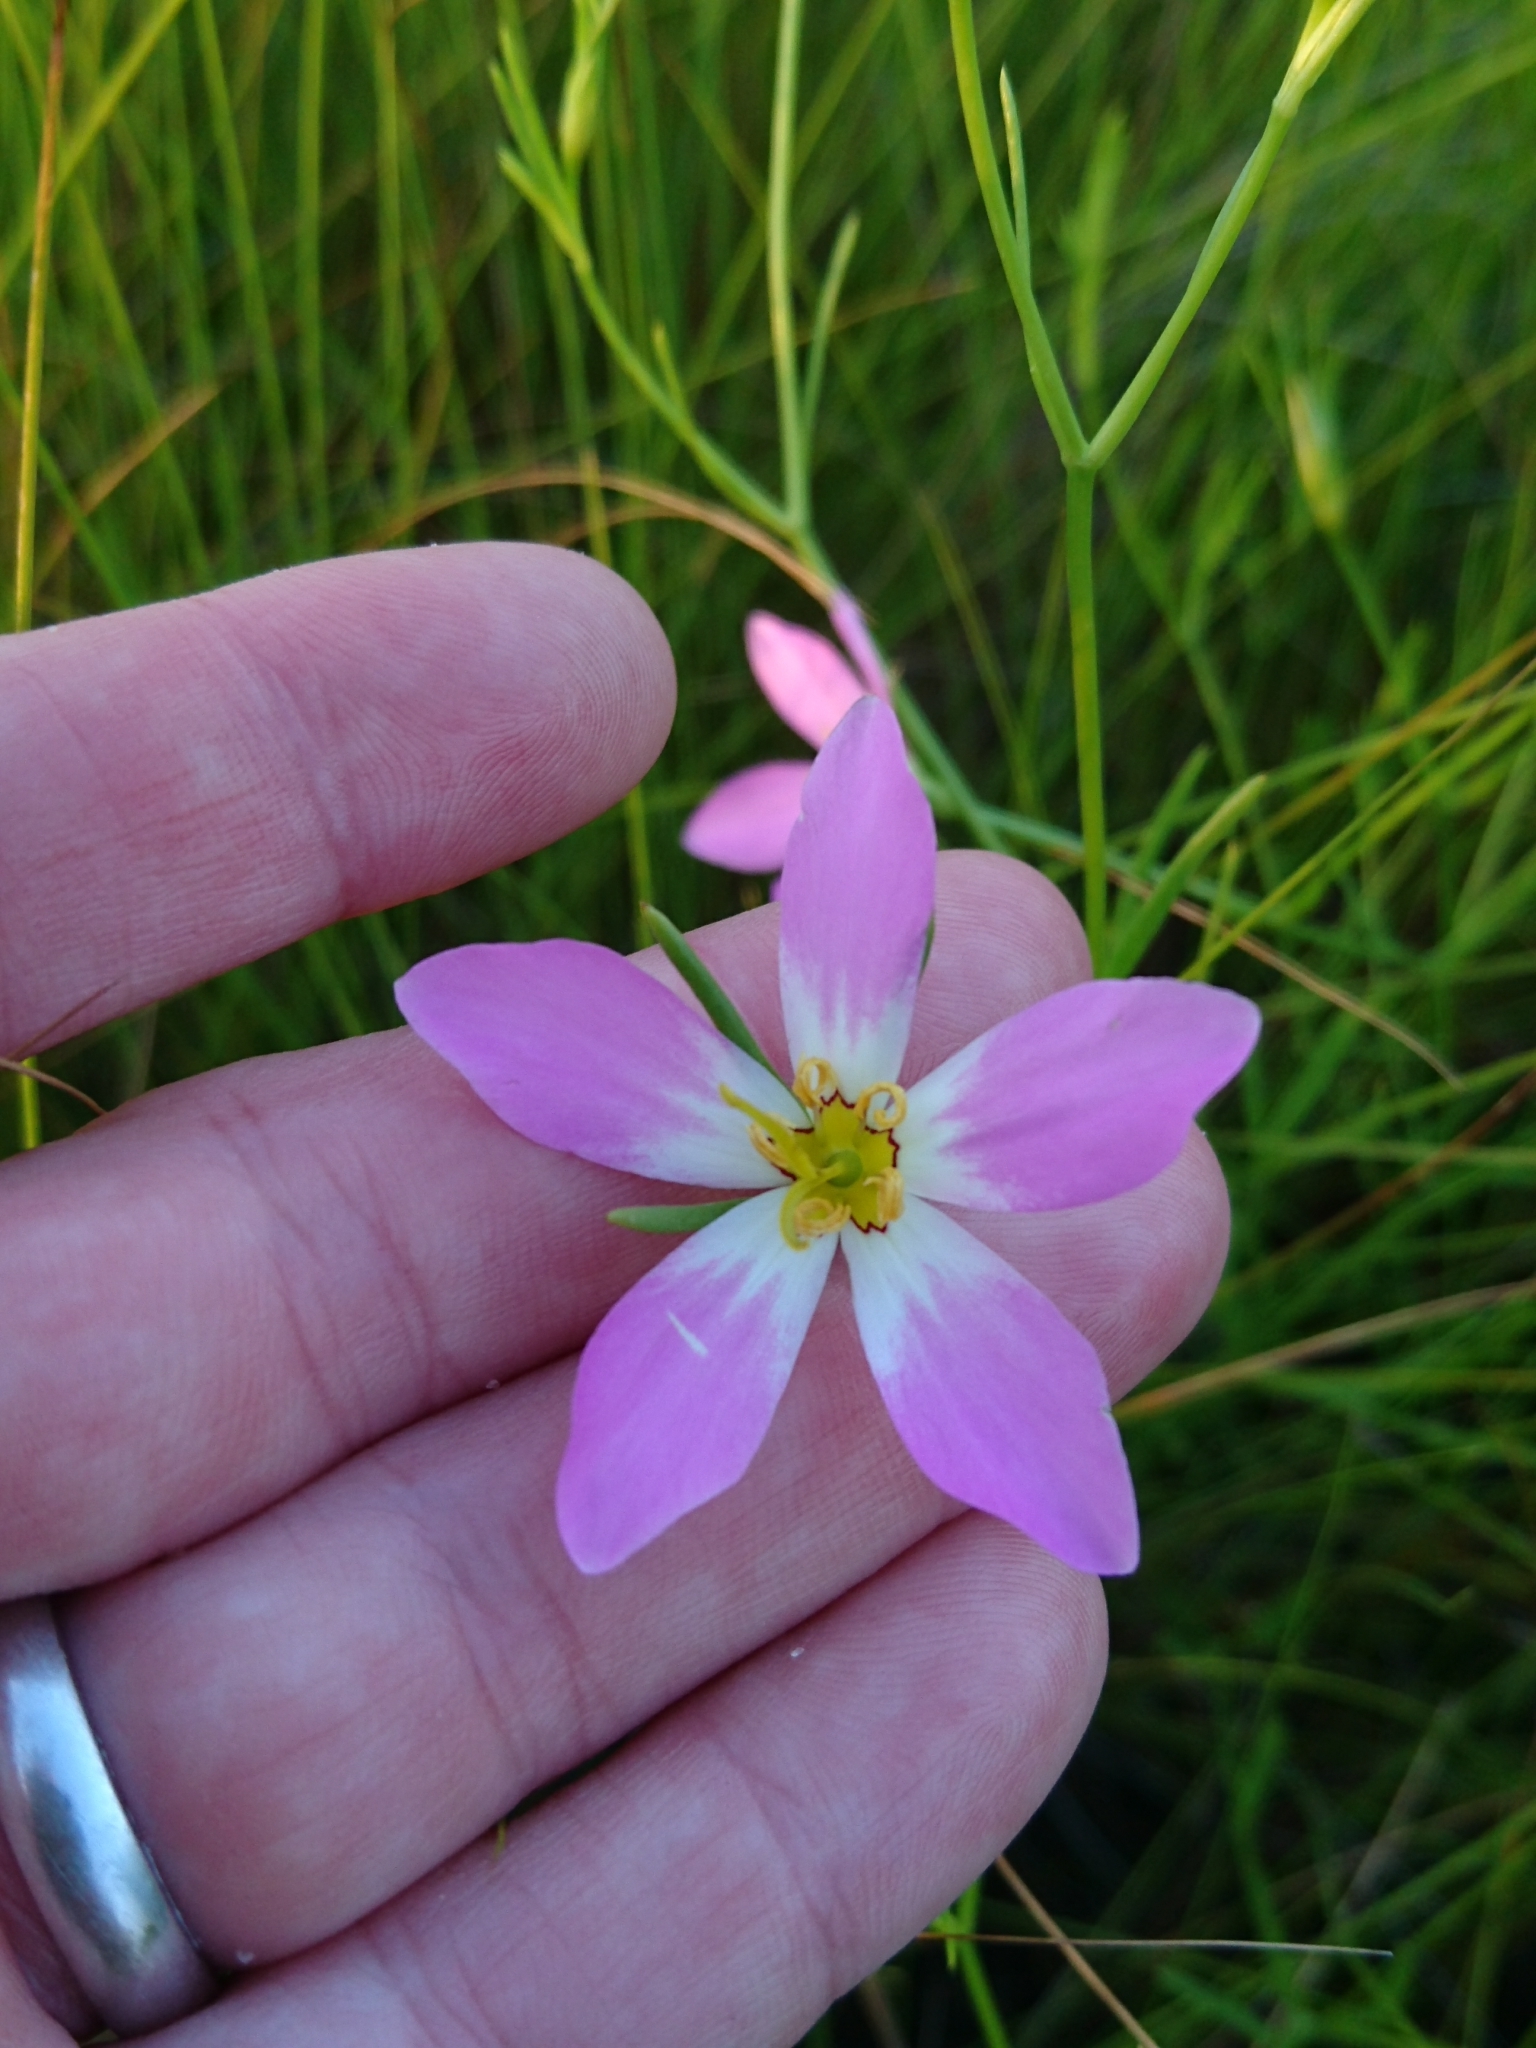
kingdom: Plantae
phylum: Tracheophyta
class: Magnoliopsida
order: Gentianales
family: Gentianaceae
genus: Sabatia
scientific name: Sabatia stellaris
